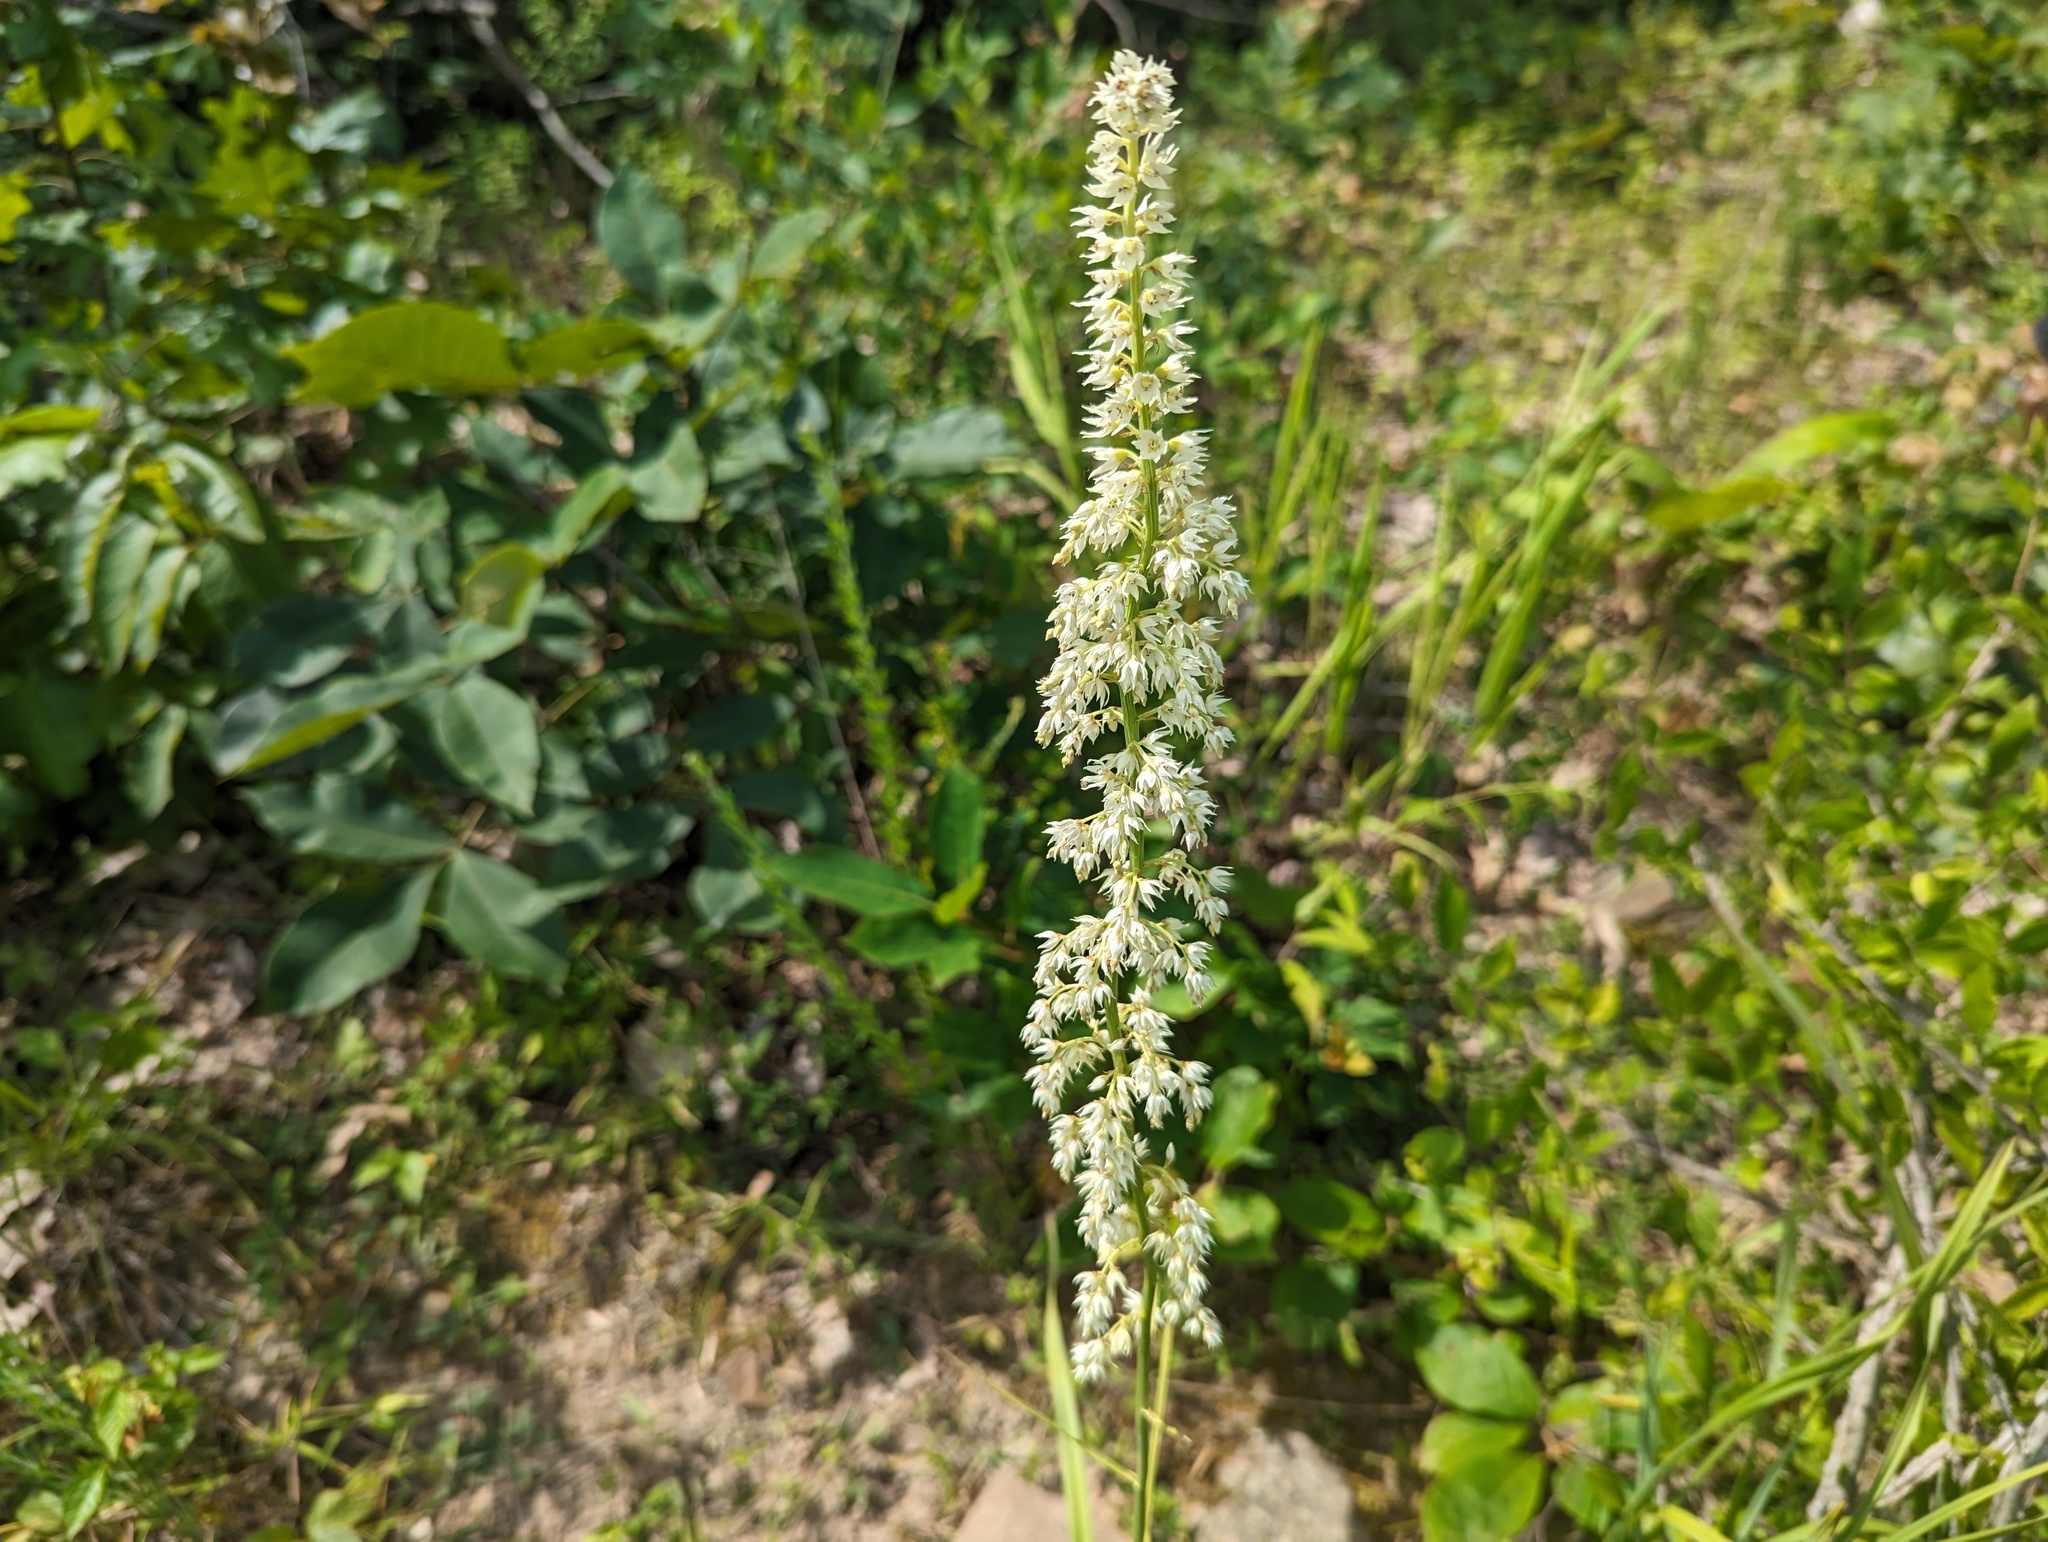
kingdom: Plantae
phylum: Tracheophyta
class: Liliopsida
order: Liliales
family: Melanthiaceae
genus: Stenanthium
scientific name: Stenanthium gramineum
